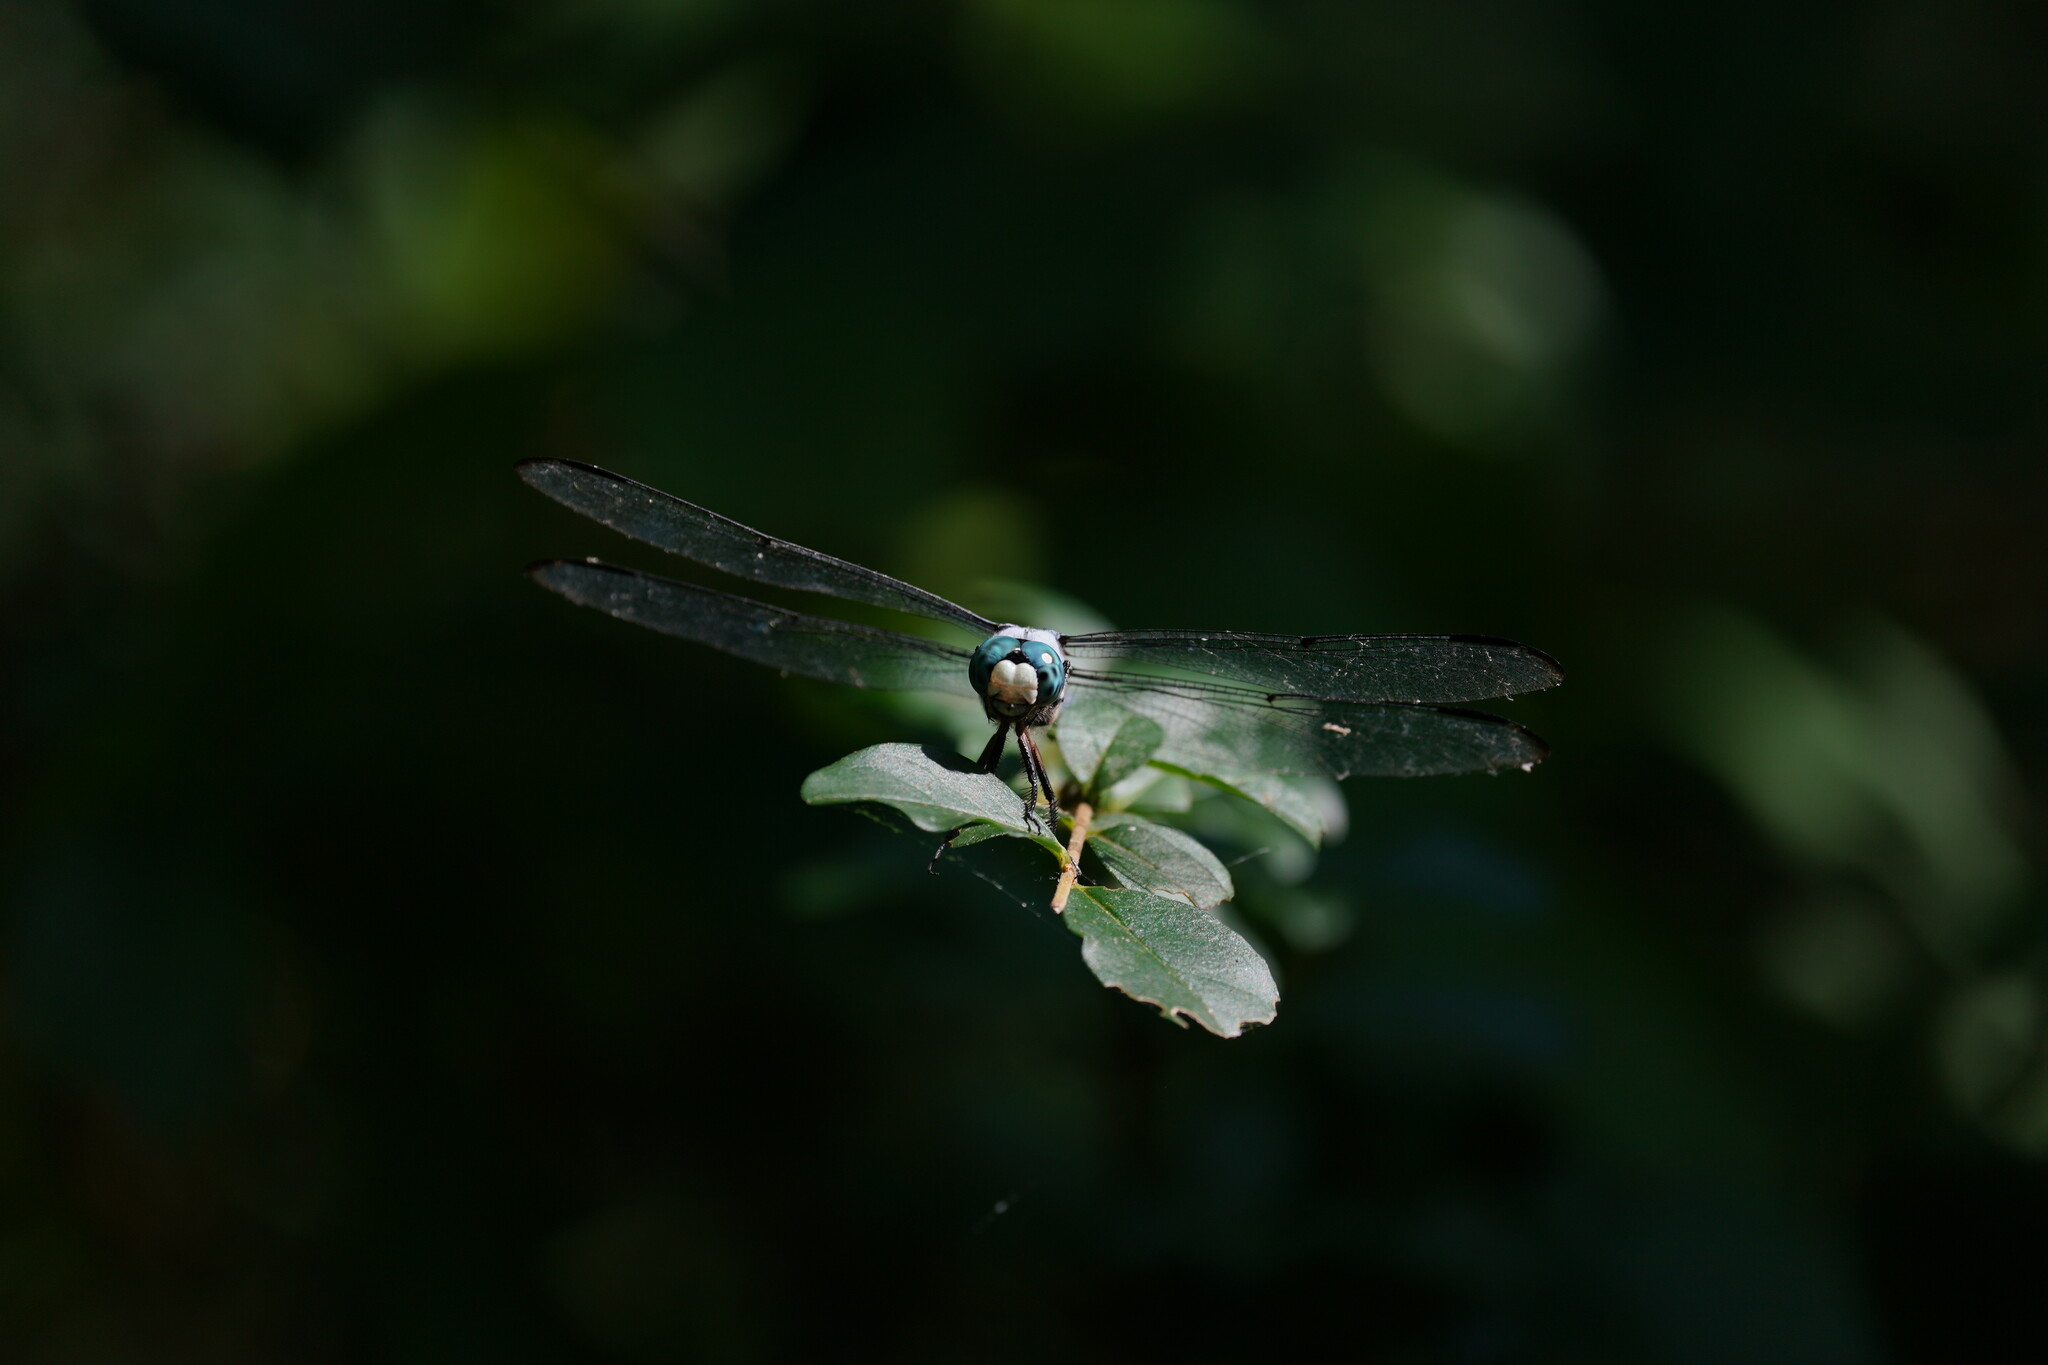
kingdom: Animalia
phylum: Arthropoda
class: Insecta
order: Odonata
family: Libellulidae
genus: Libellula
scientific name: Libellula vibrans
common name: Great blue skimmer
